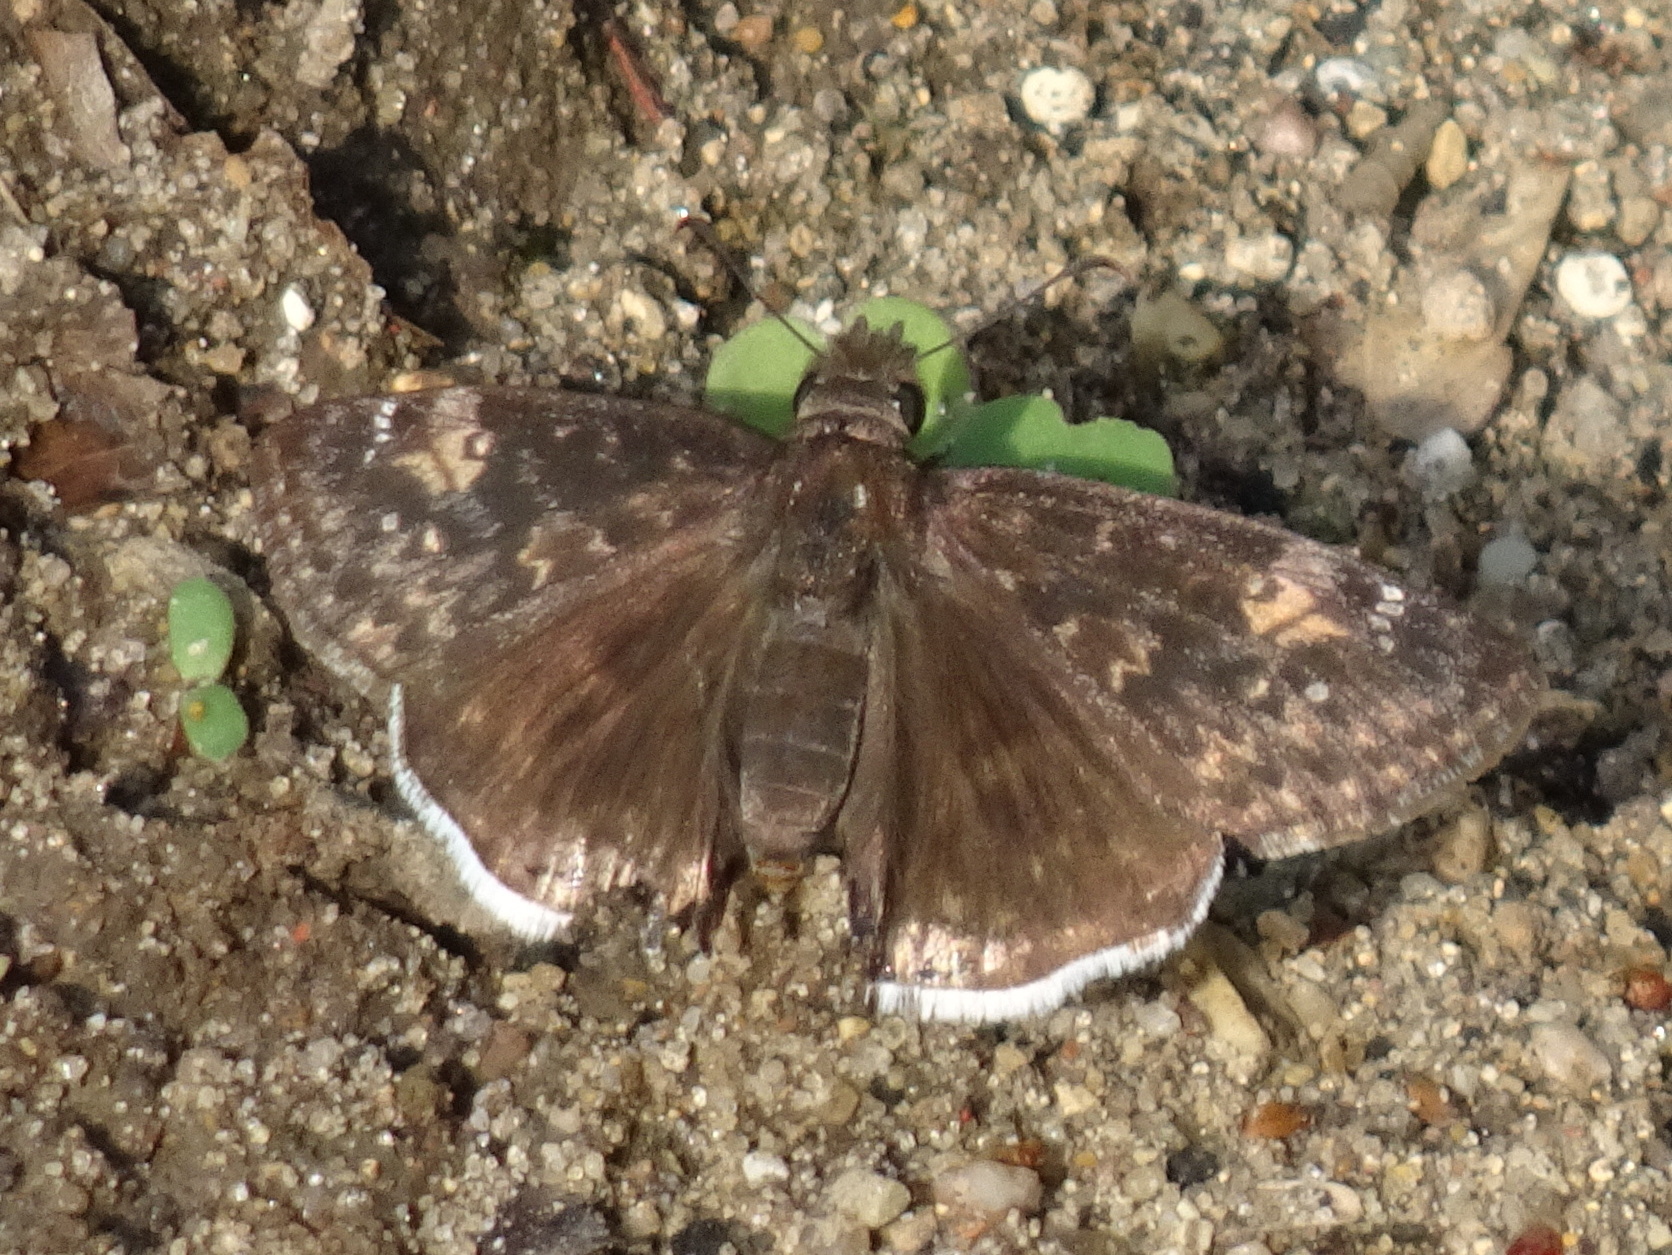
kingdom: Animalia
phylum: Arthropoda
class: Insecta
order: Lepidoptera
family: Hesperiidae
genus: Erynnis
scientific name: Erynnis funeralis
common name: Funereal duskywing
